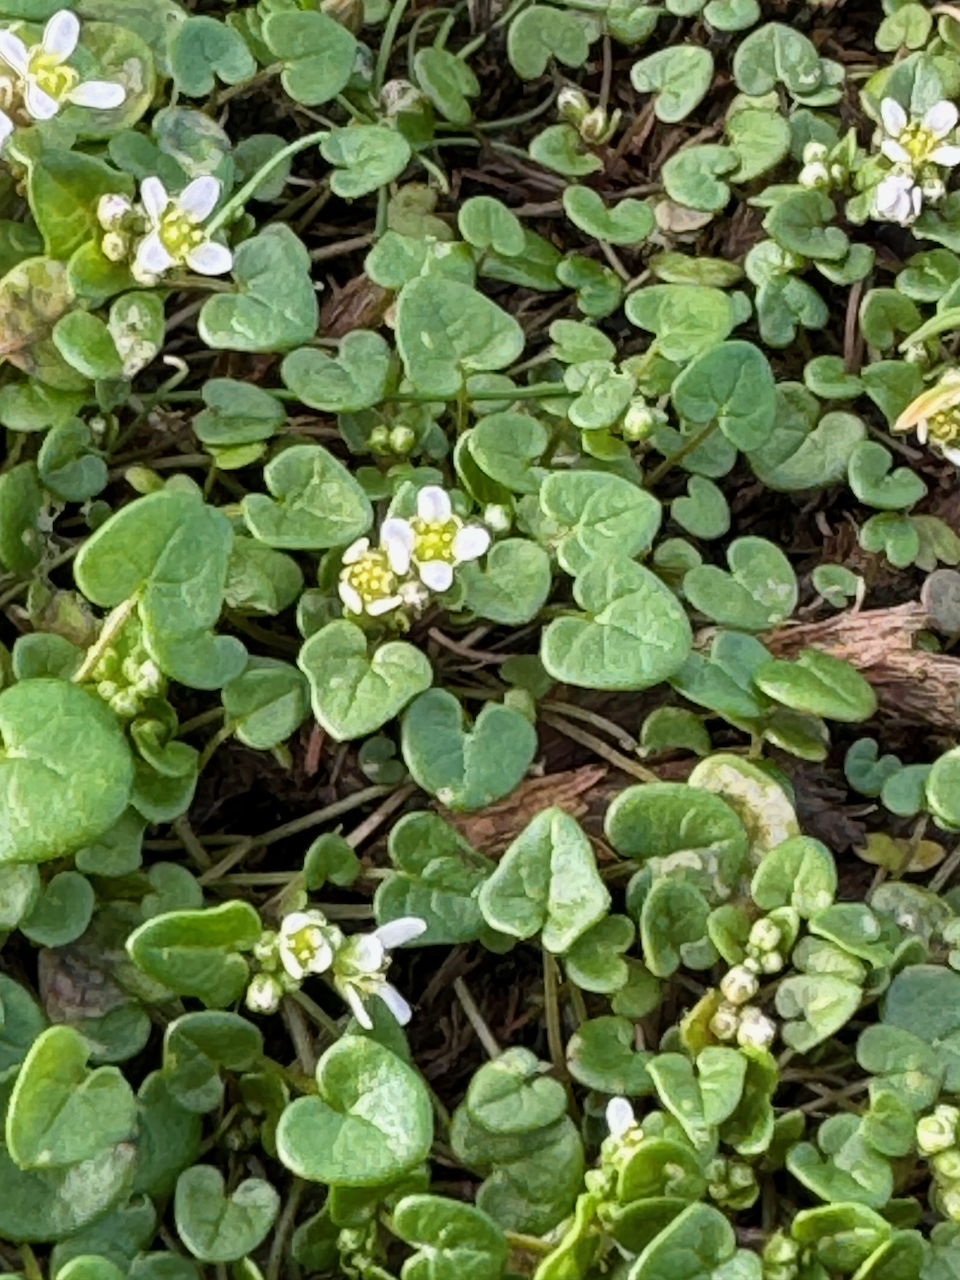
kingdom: Plantae
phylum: Tracheophyta
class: Magnoliopsida
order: Brassicales
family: Brassicaceae
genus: Cochlearia
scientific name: Cochlearia danica
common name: Early scurvygrass
